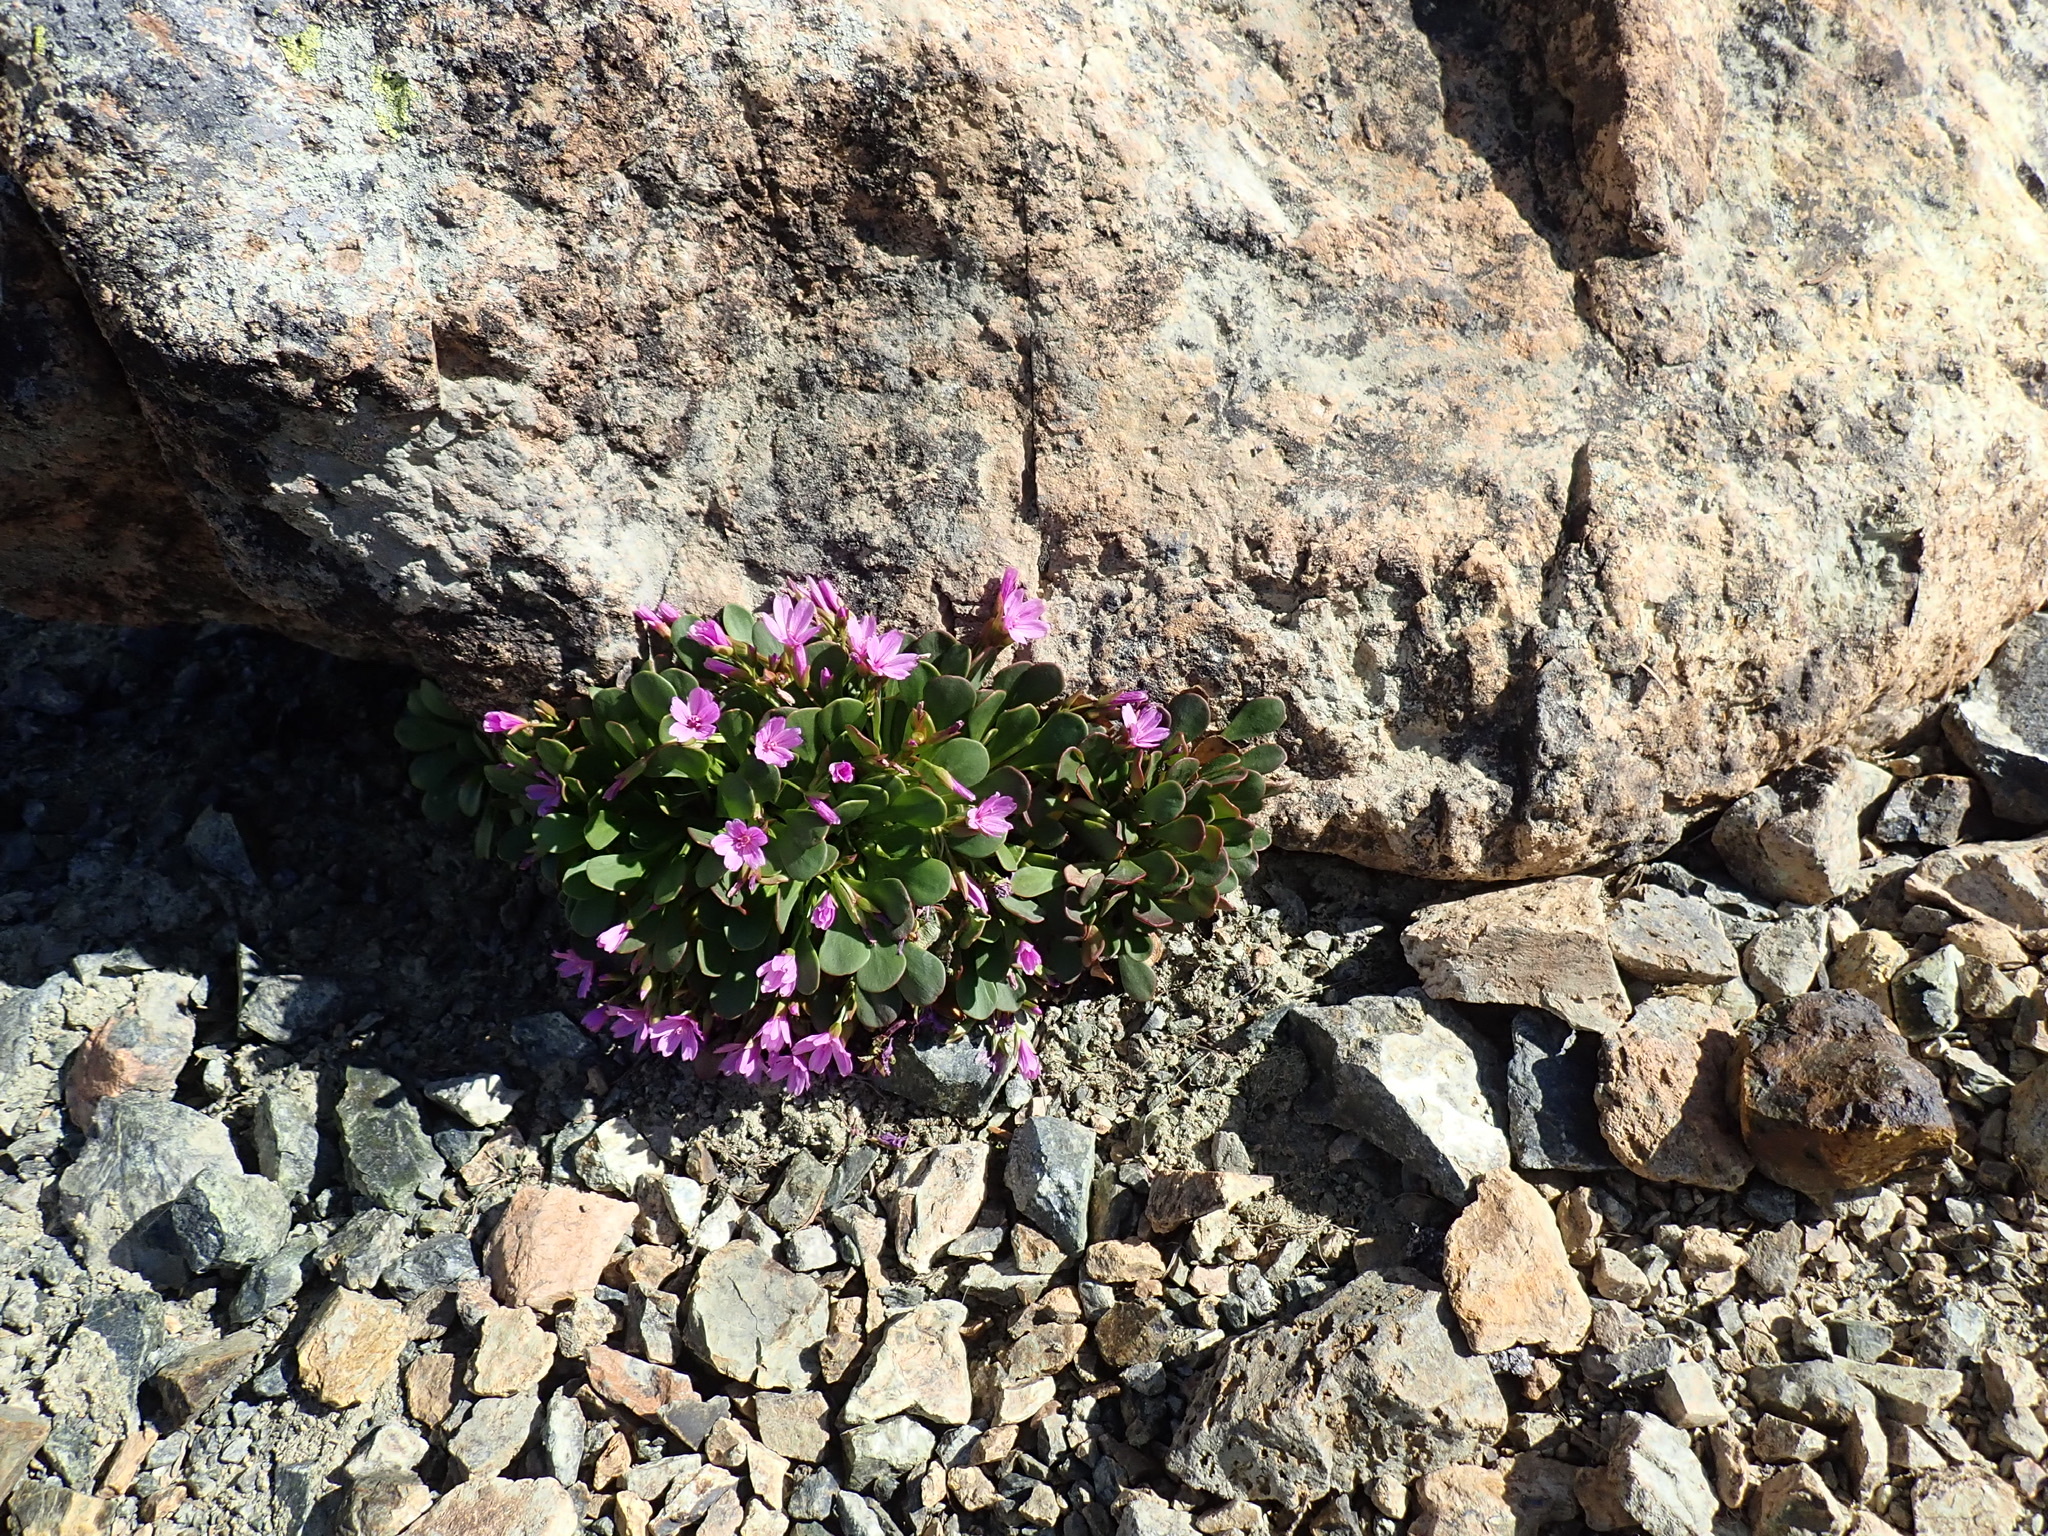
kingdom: Plantae
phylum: Tracheophyta
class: Magnoliopsida
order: Caryophyllales
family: Montiaceae
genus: Claytonia
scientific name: Claytonia megarhiza
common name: Alpine spring beauty
